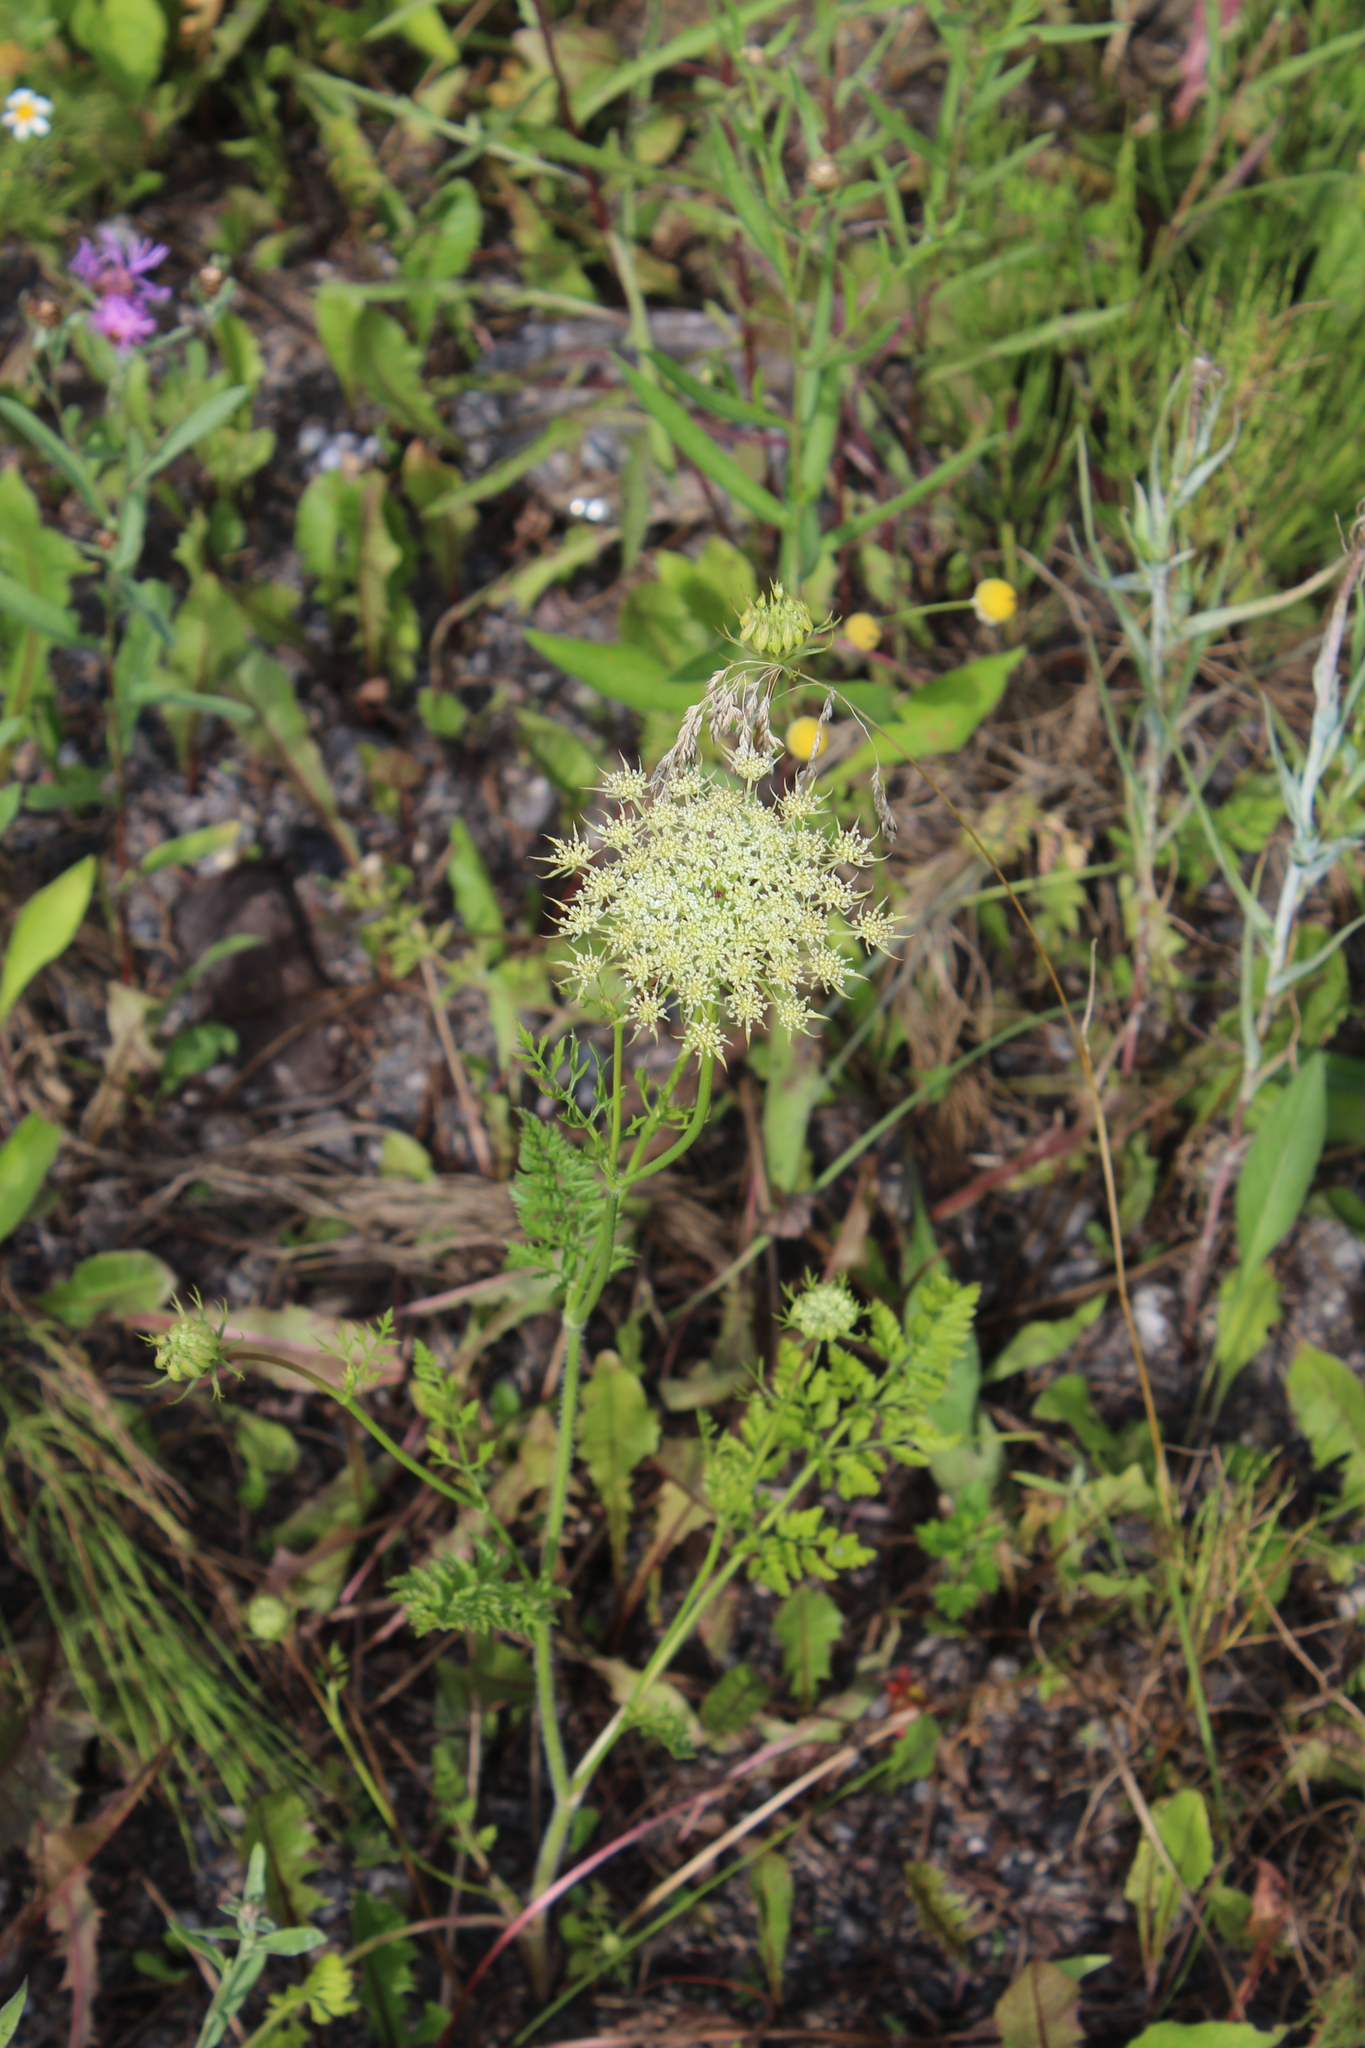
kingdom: Plantae
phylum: Tracheophyta
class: Magnoliopsida
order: Apiales
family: Apiaceae
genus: Daucus
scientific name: Daucus carota
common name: Wild carrot
